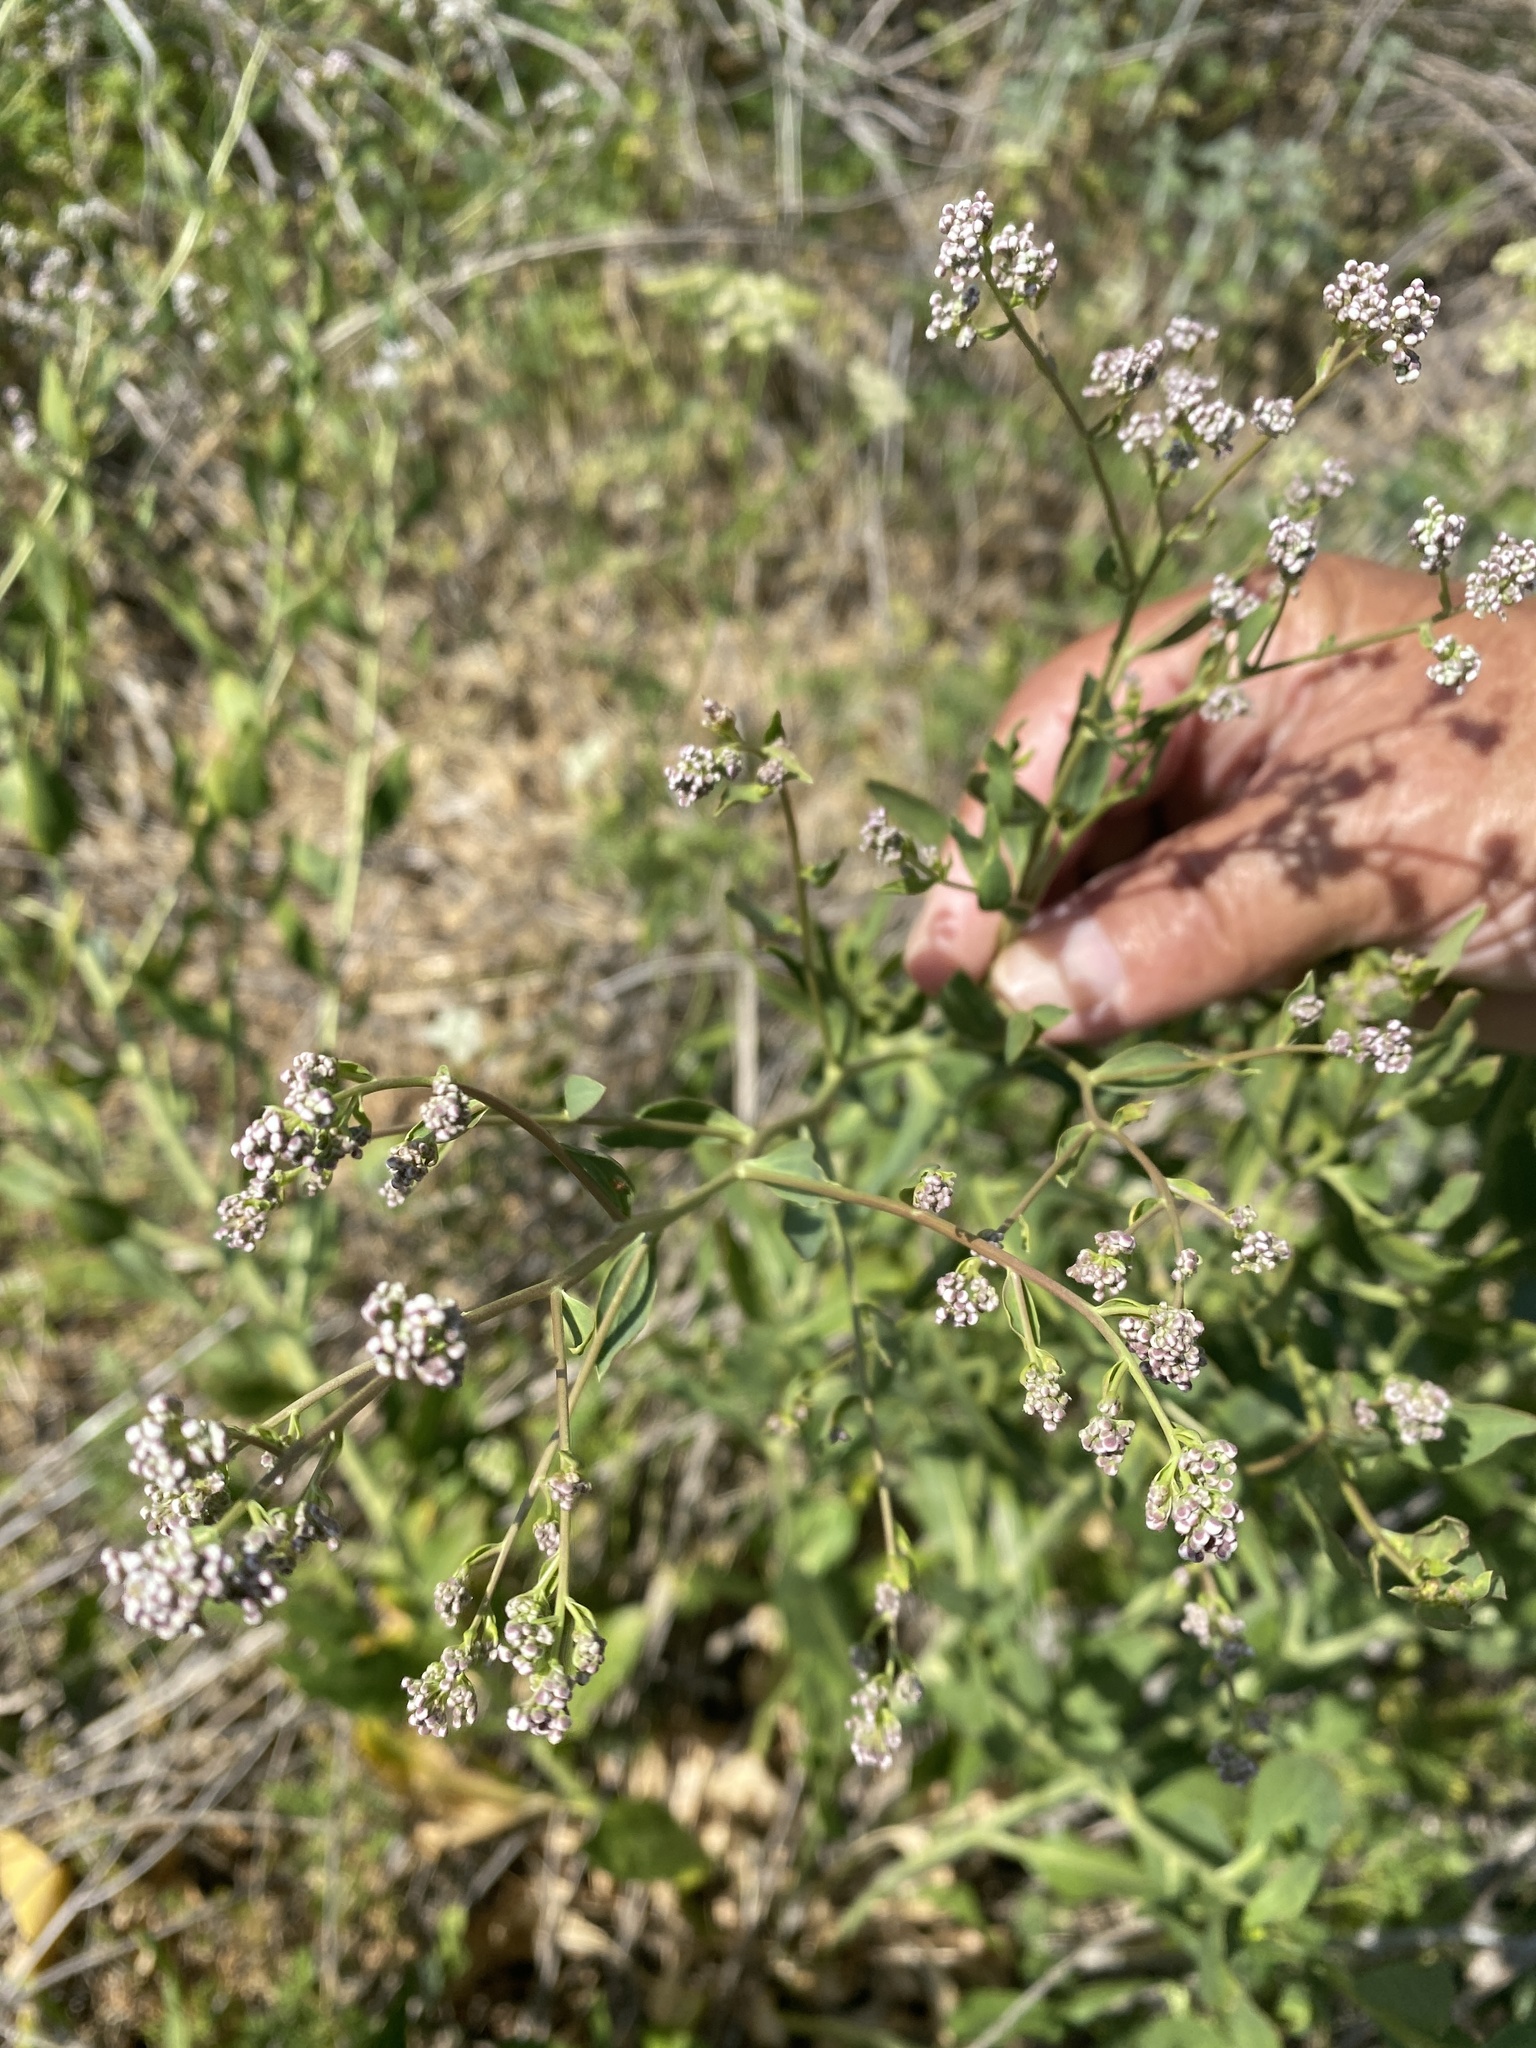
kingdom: Plantae
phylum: Tracheophyta
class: Magnoliopsida
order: Brassicales
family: Brassicaceae
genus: Lepidium
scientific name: Lepidium latifolium
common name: Dittander
